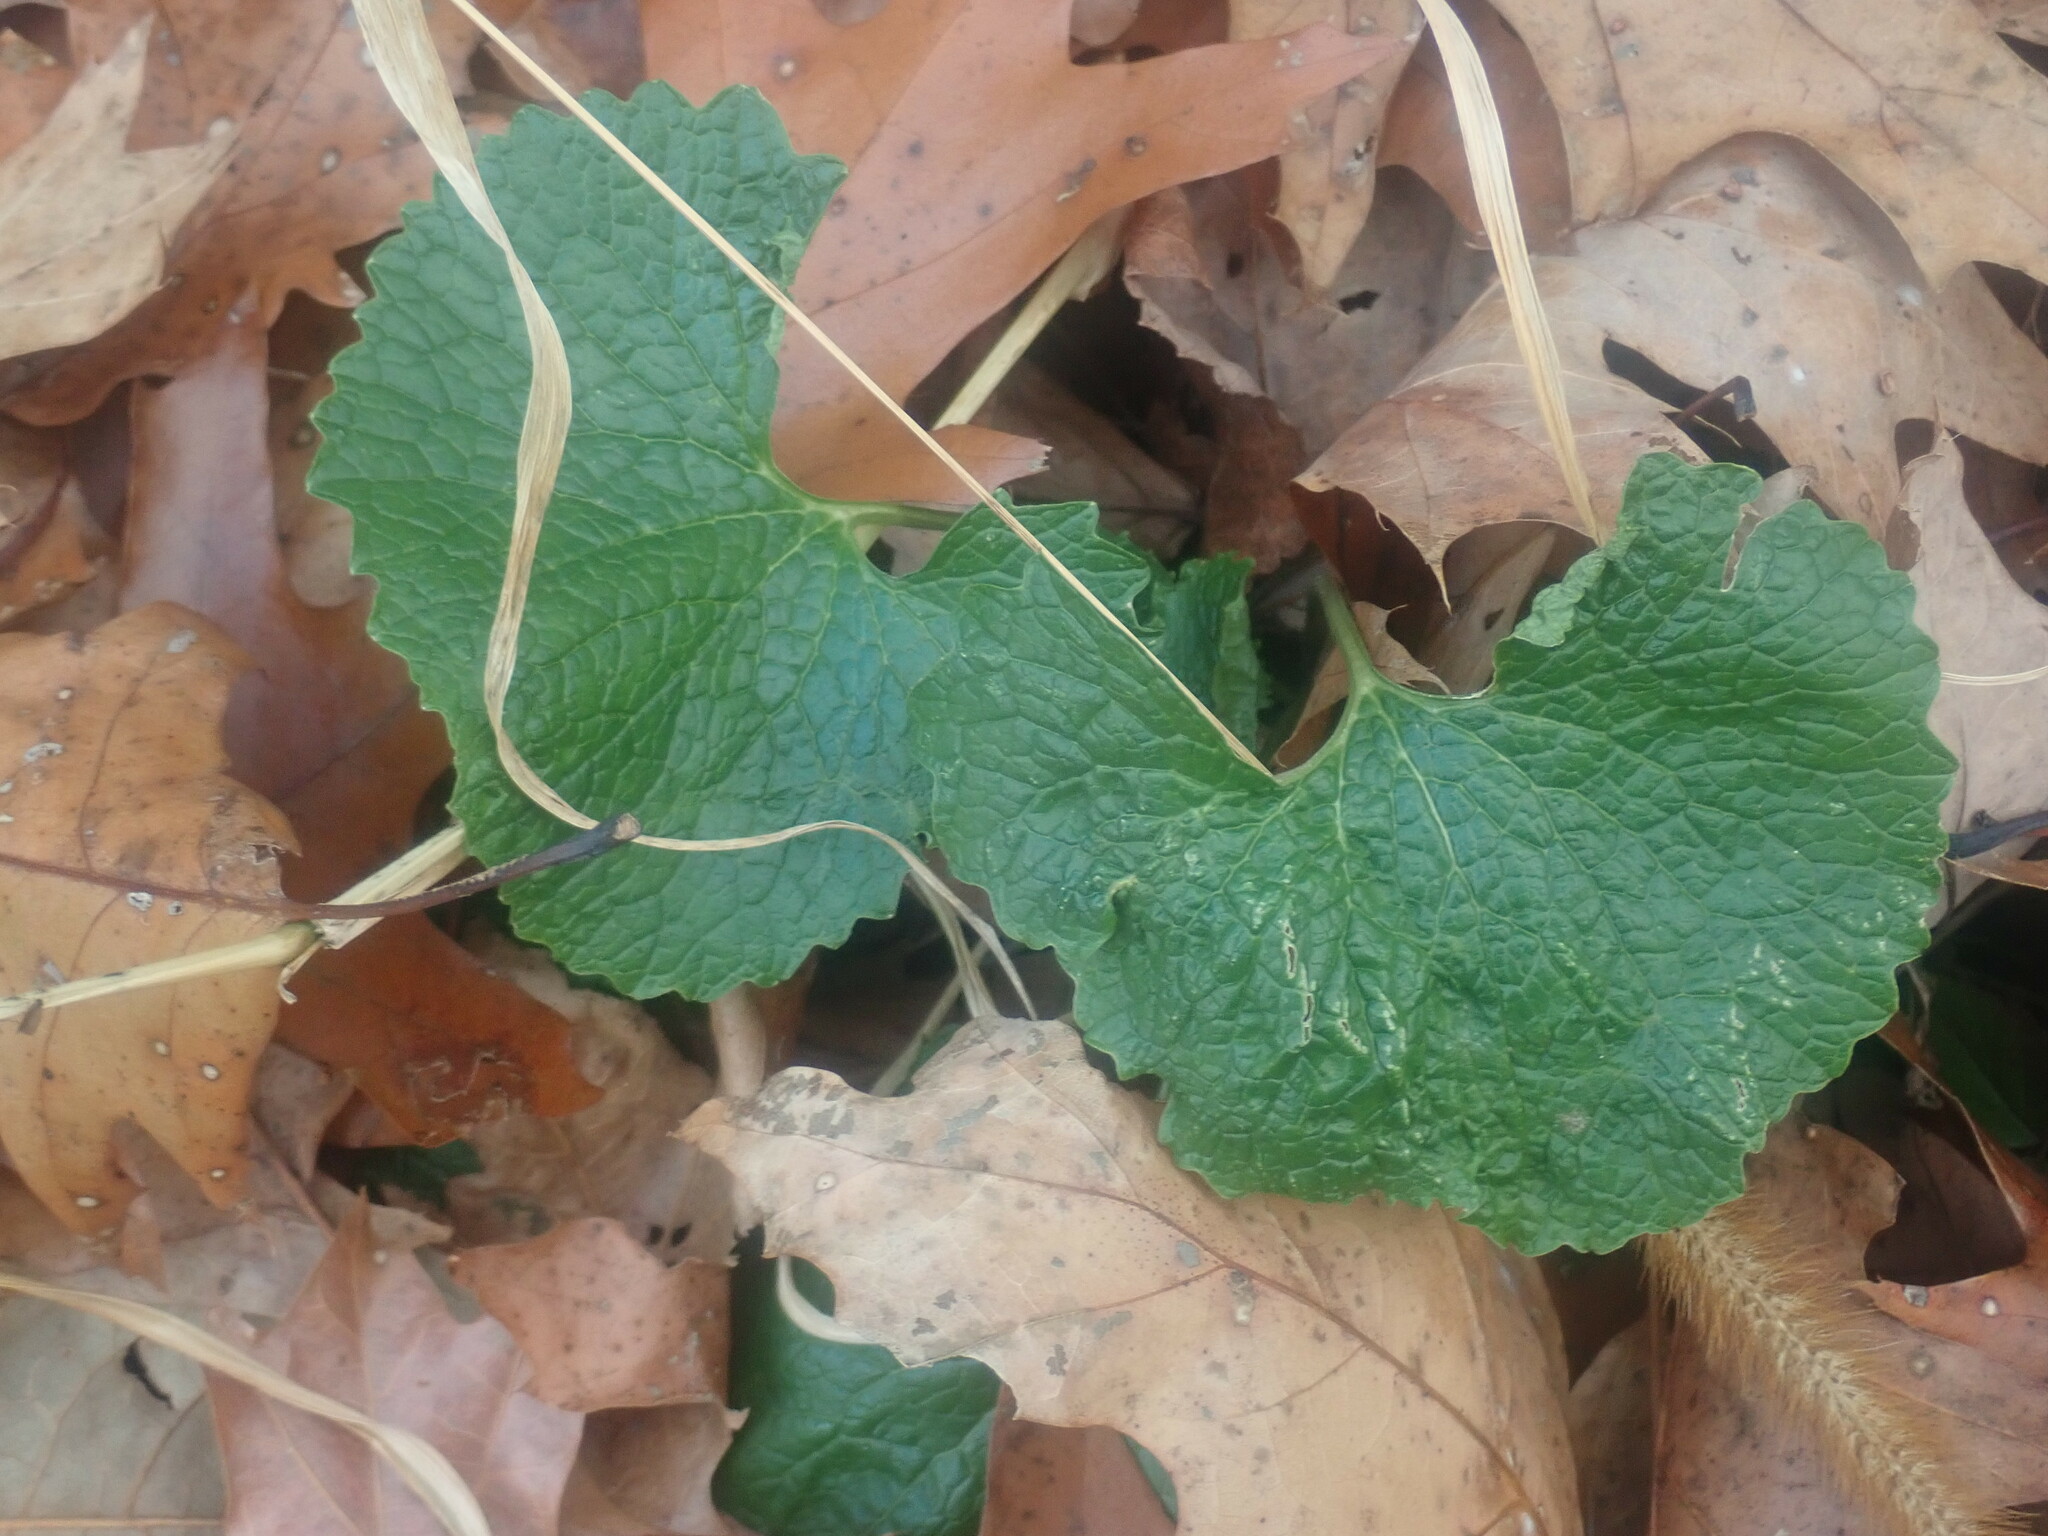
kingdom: Plantae
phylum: Tracheophyta
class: Magnoliopsida
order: Brassicales
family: Brassicaceae
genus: Alliaria
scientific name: Alliaria petiolata
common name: Garlic mustard
